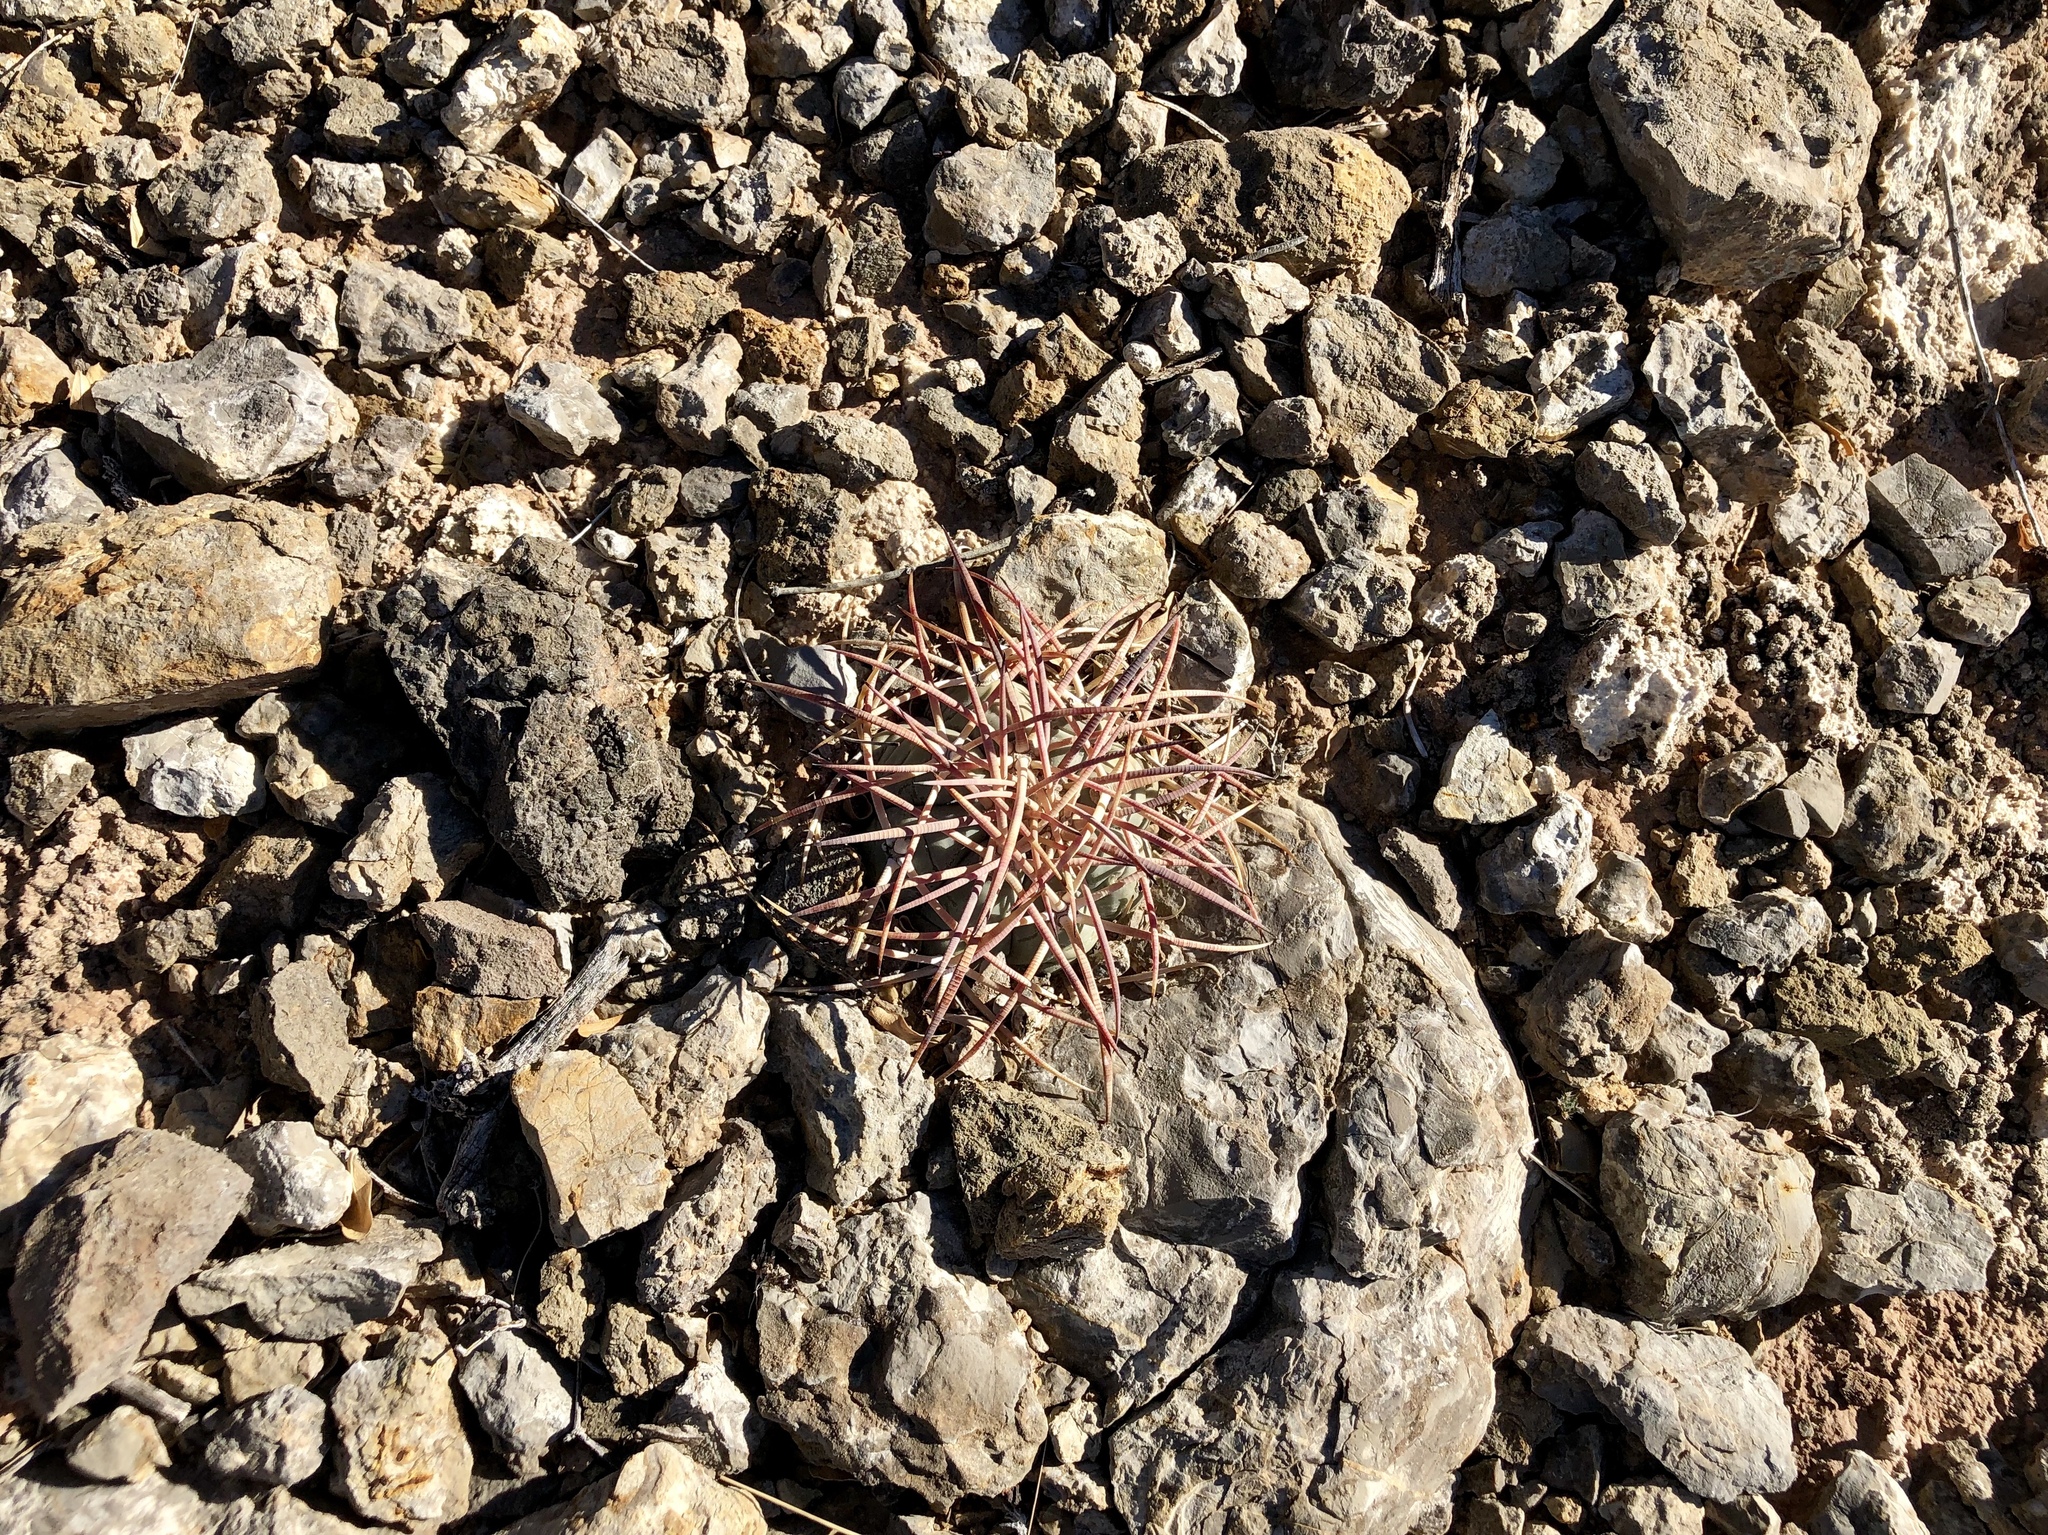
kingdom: Plantae
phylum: Tracheophyta
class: Magnoliopsida
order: Caryophyllales
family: Cactaceae
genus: Echinocactus
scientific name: Echinocactus horizonthalonius
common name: Devilshead
